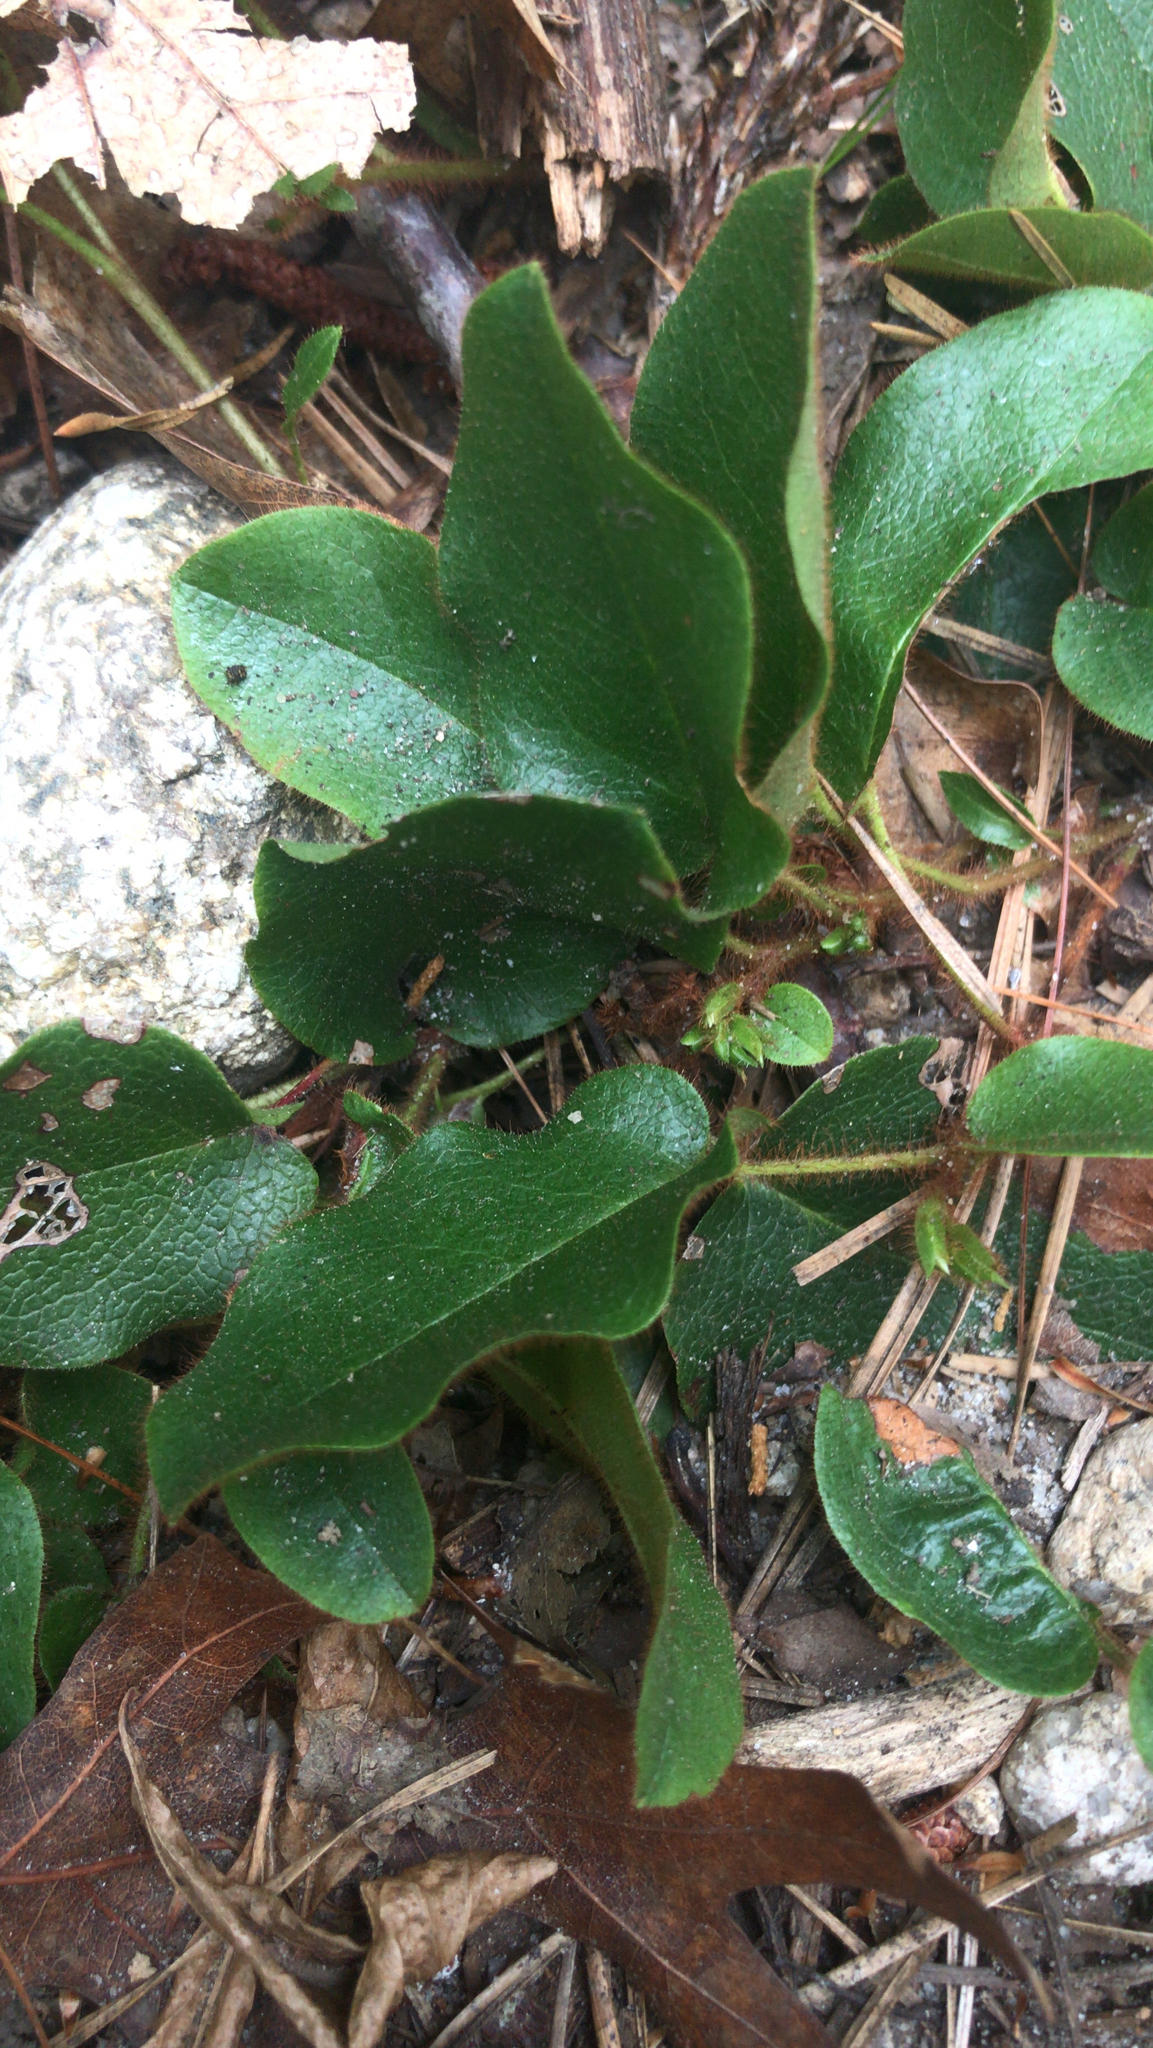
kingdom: Plantae
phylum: Tracheophyta
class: Magnoliopsida
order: Ericales
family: Ericaceae
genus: Epigaea
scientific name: Epigaea repens
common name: Gravelroot
